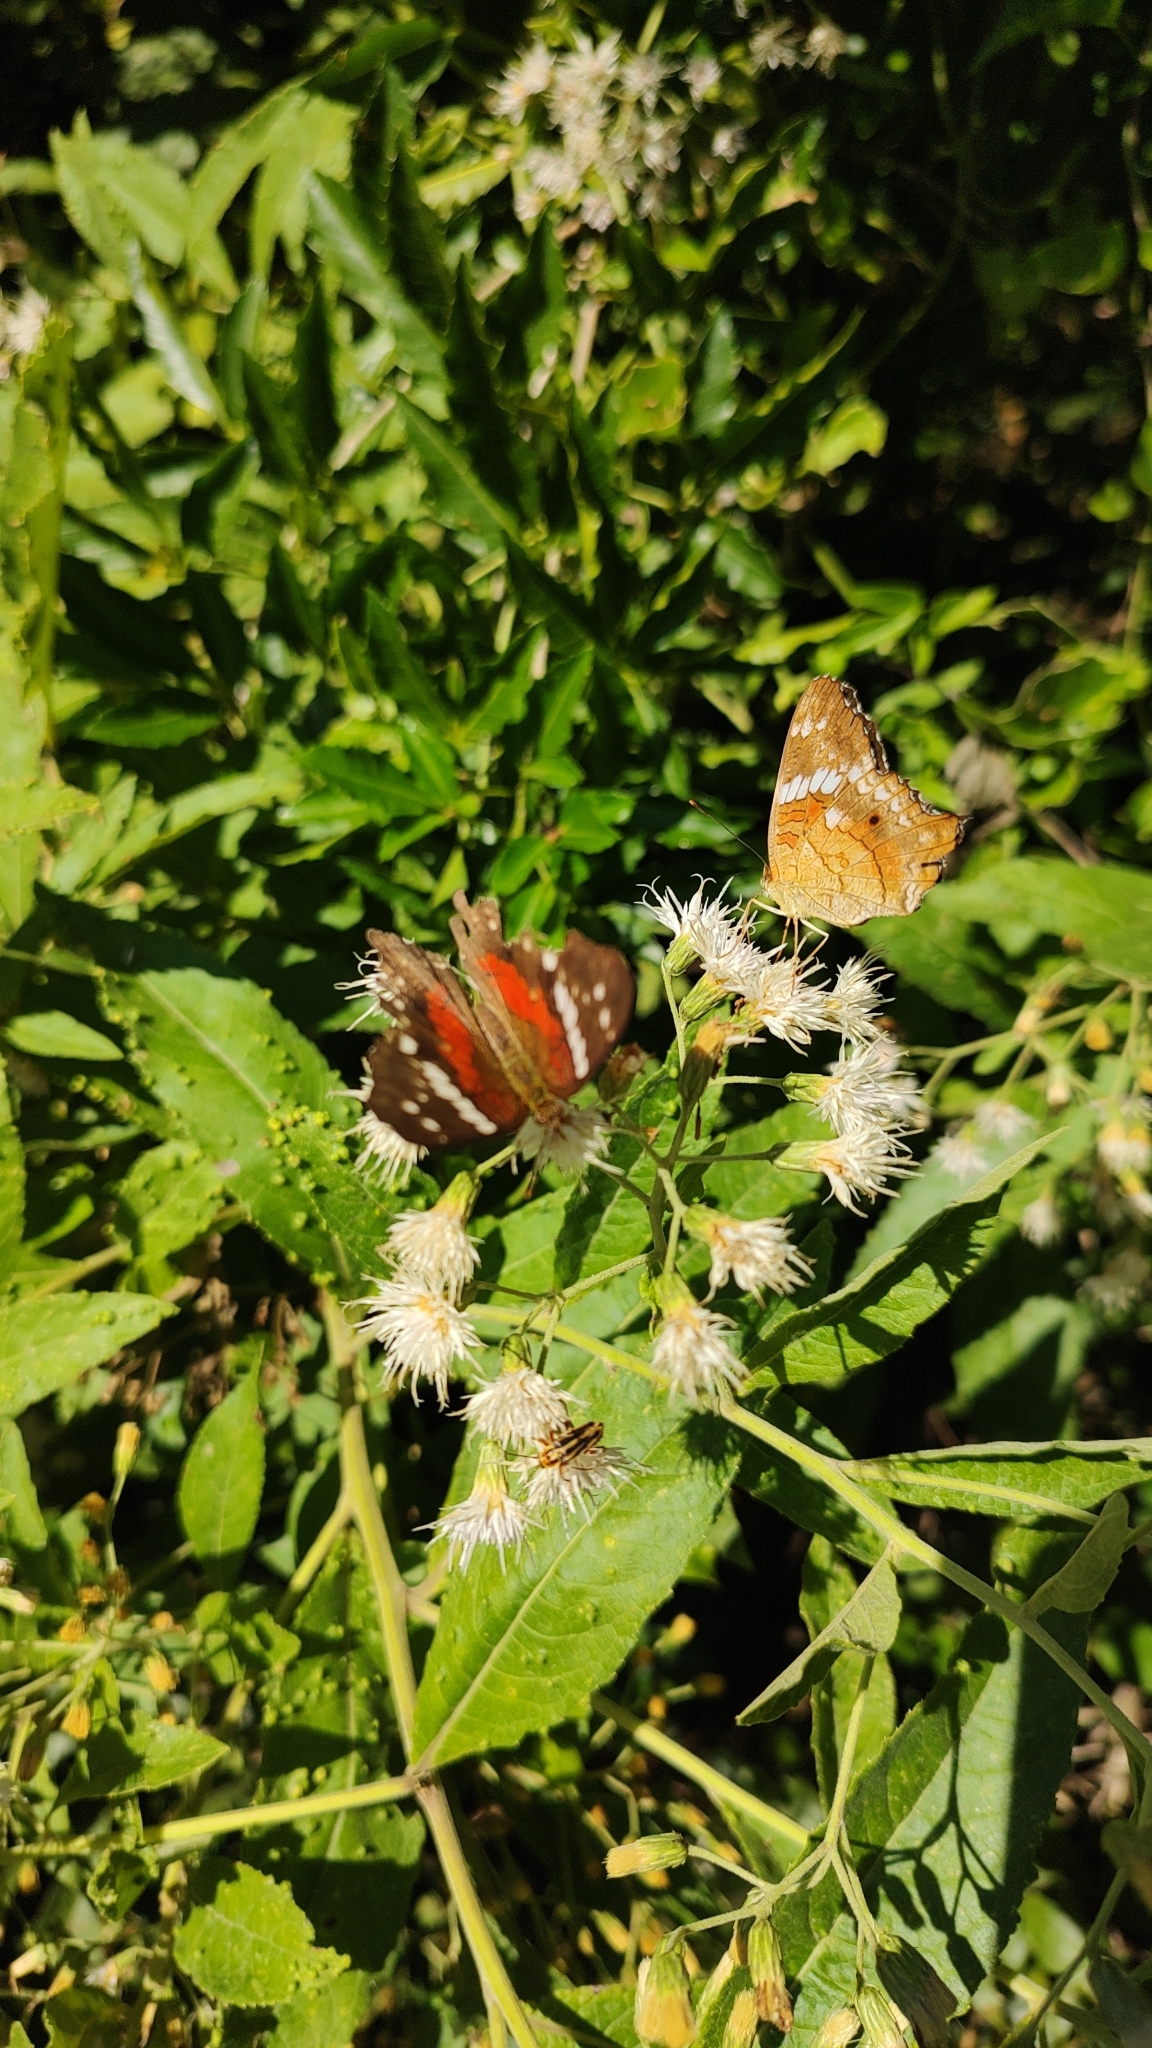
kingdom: Animalia
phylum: Arthropoda
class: Insecta
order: Lepidoptera
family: Nymphalidae
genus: Anartia
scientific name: Anartia amathea
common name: Red peacock
